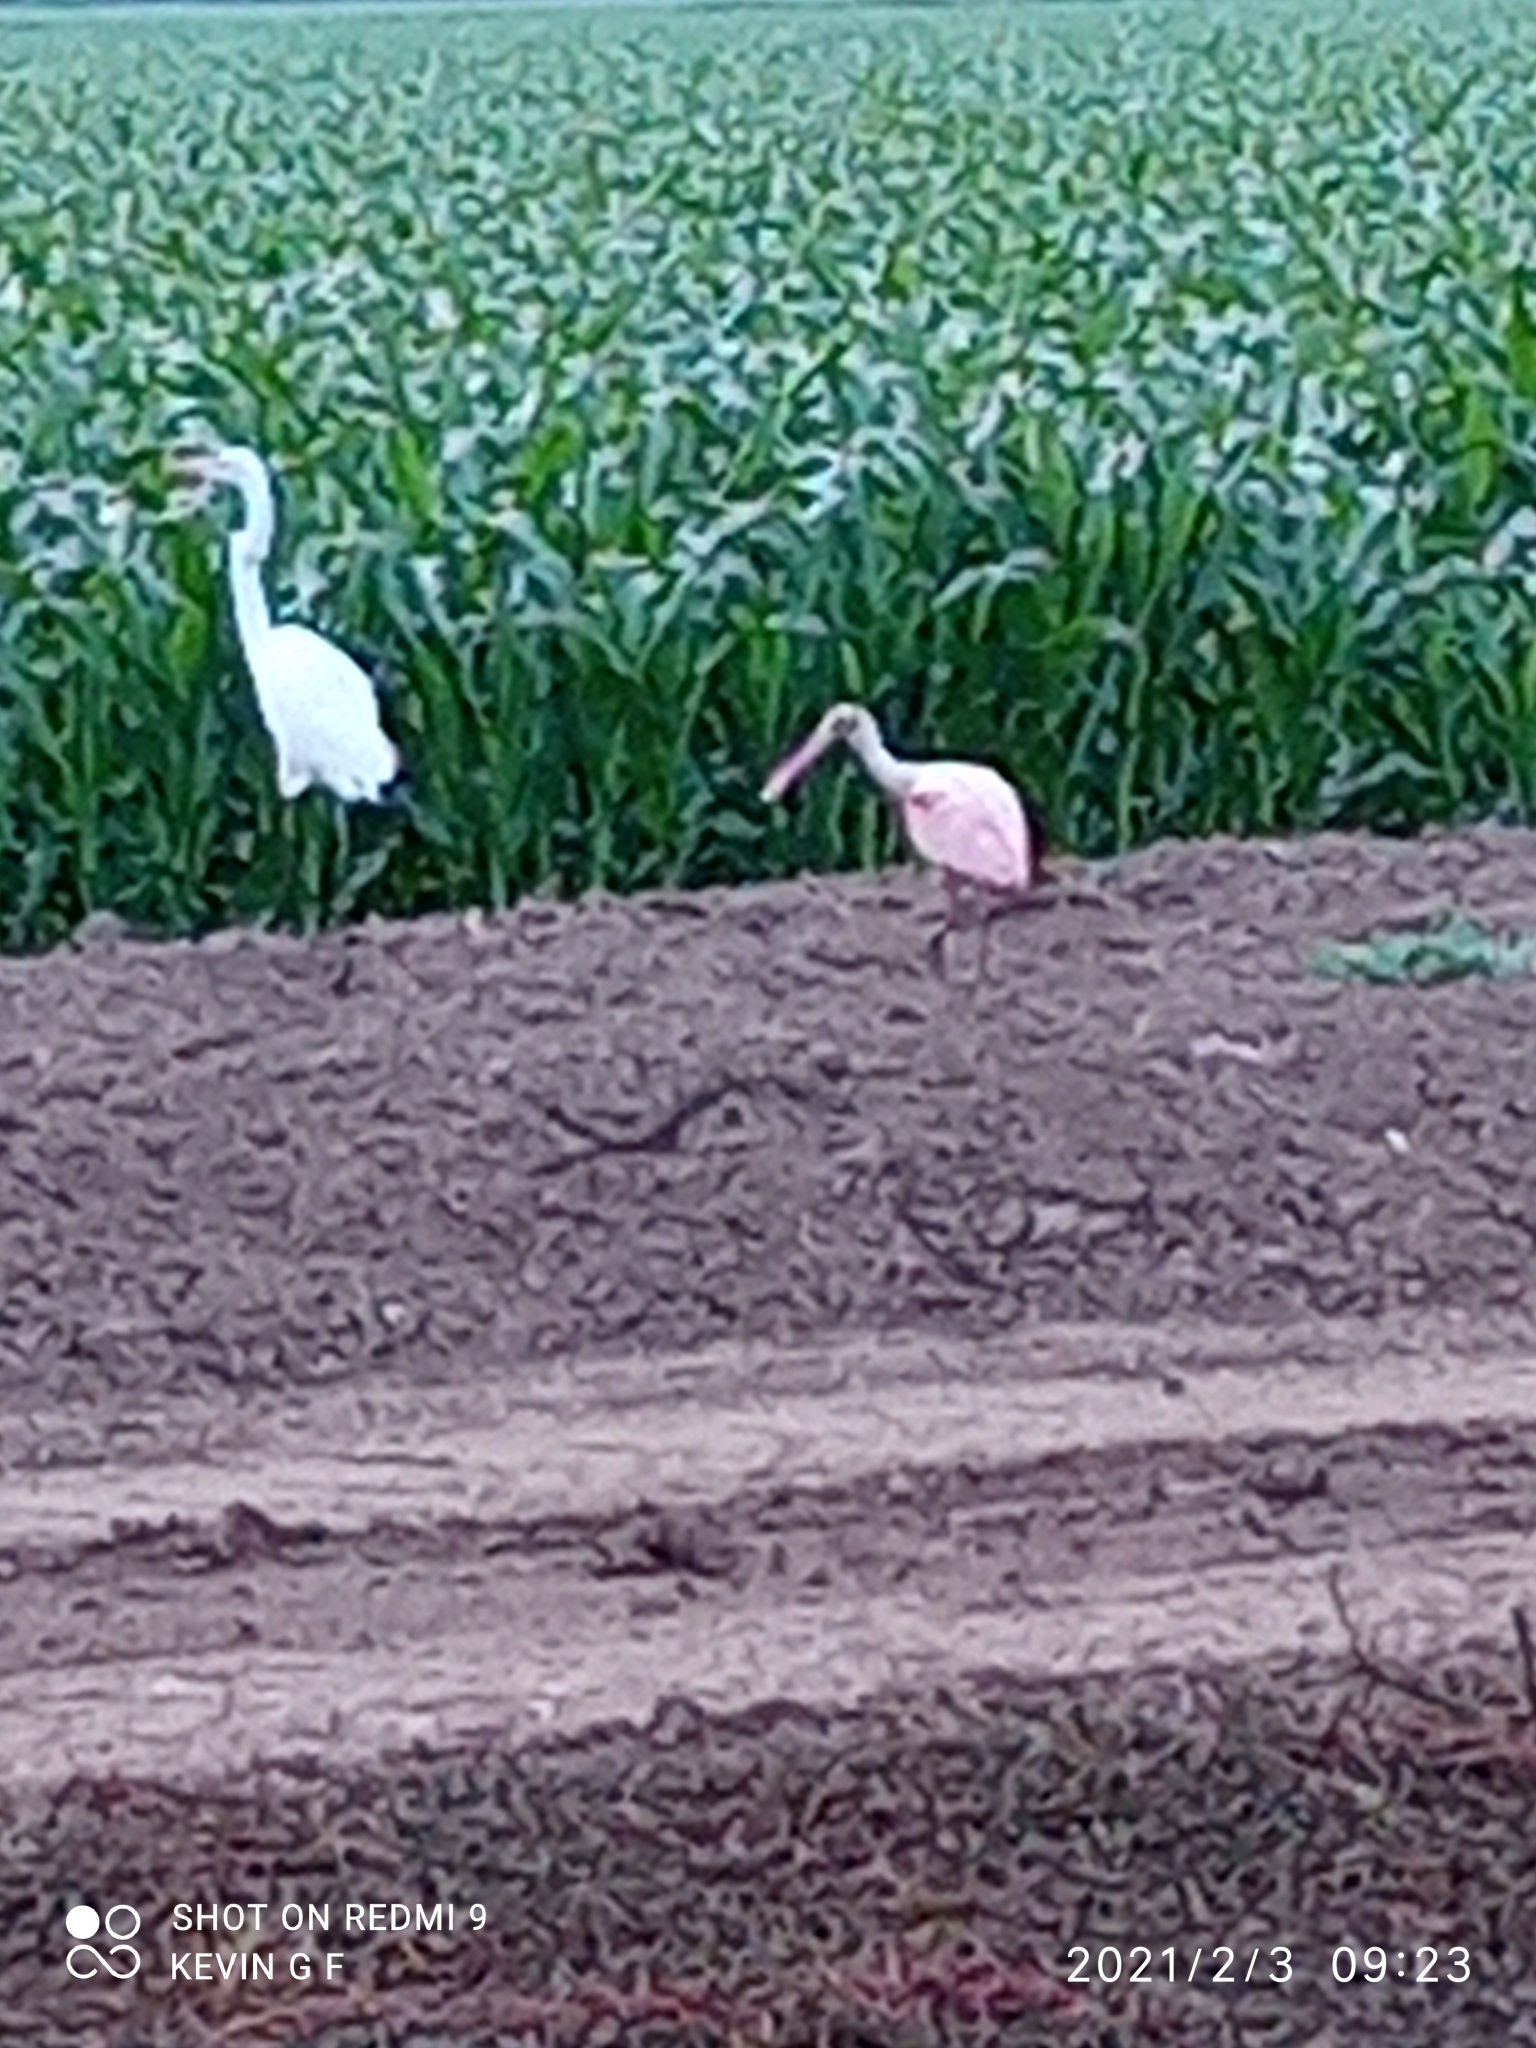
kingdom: Animalia
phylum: Chordata
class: Aves
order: Pelecaniformes
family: Threskiornithidae
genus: Platalea
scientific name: Platalea ajaja
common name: Roseate spoonbill
